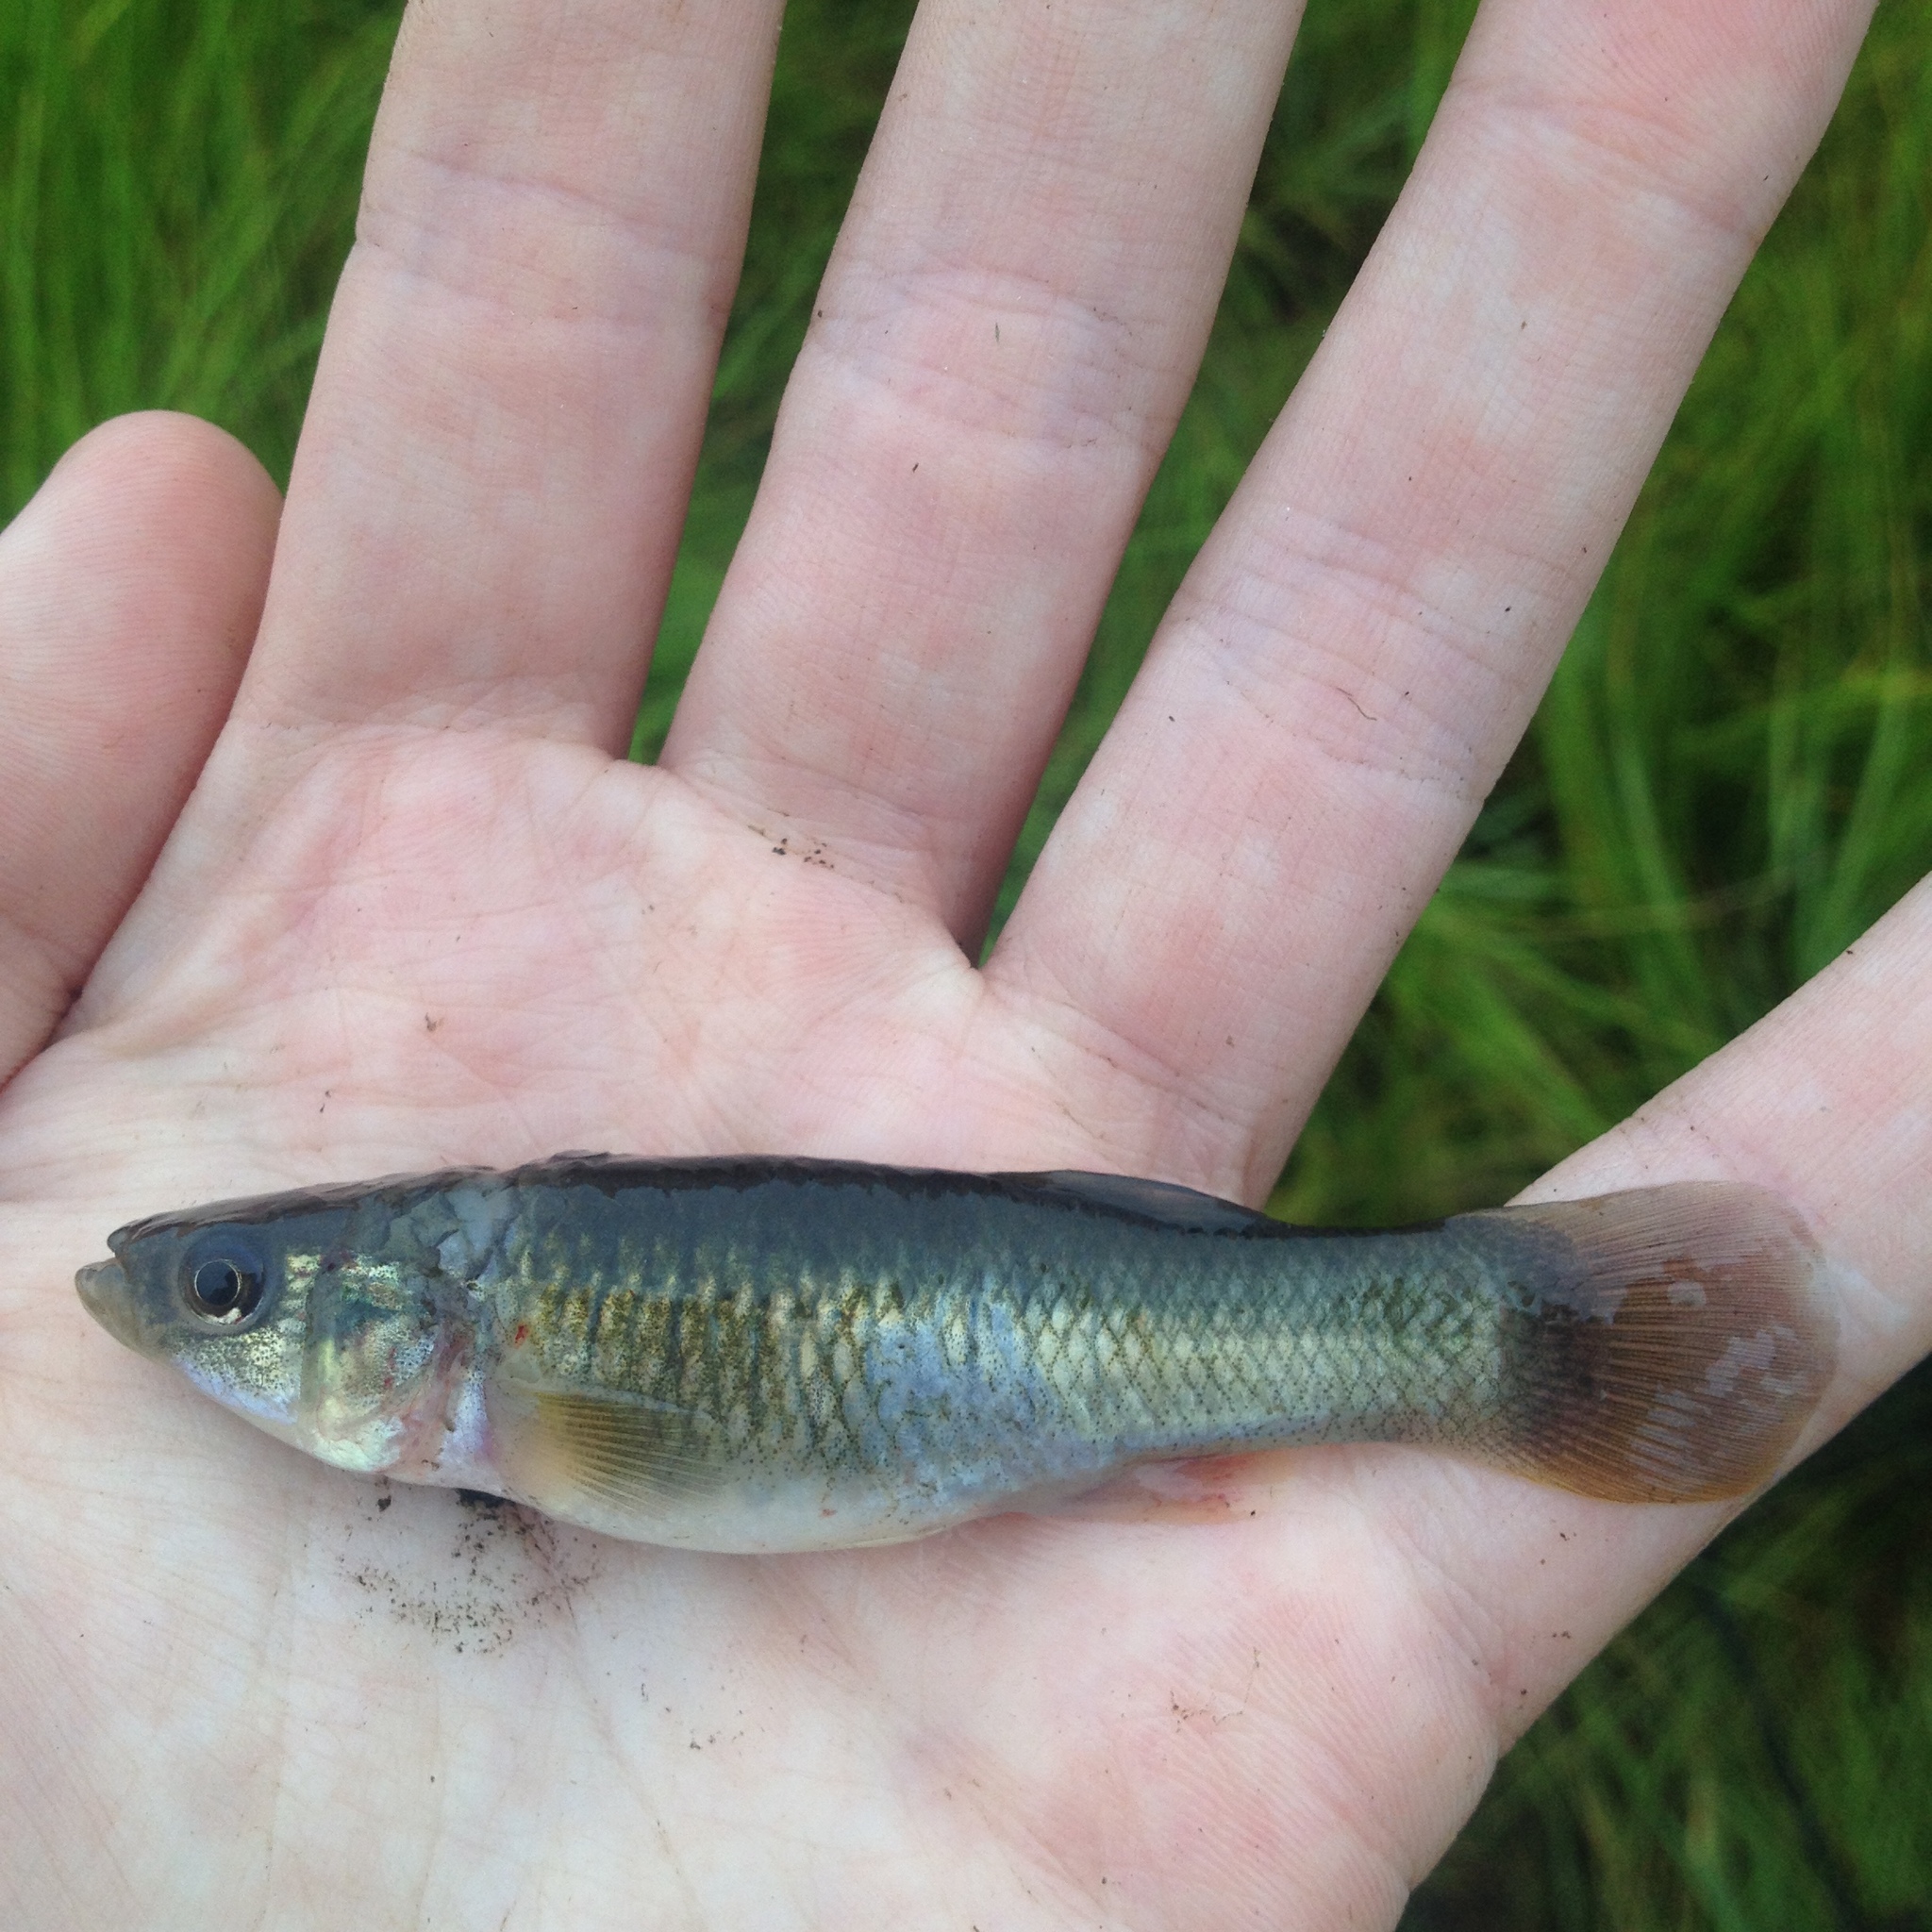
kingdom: Animalia
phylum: Chordata
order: Cyprinodontiformes
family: Fundulidae
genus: Fundulus
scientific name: Fundulus heteroclitus
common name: Mummichog
